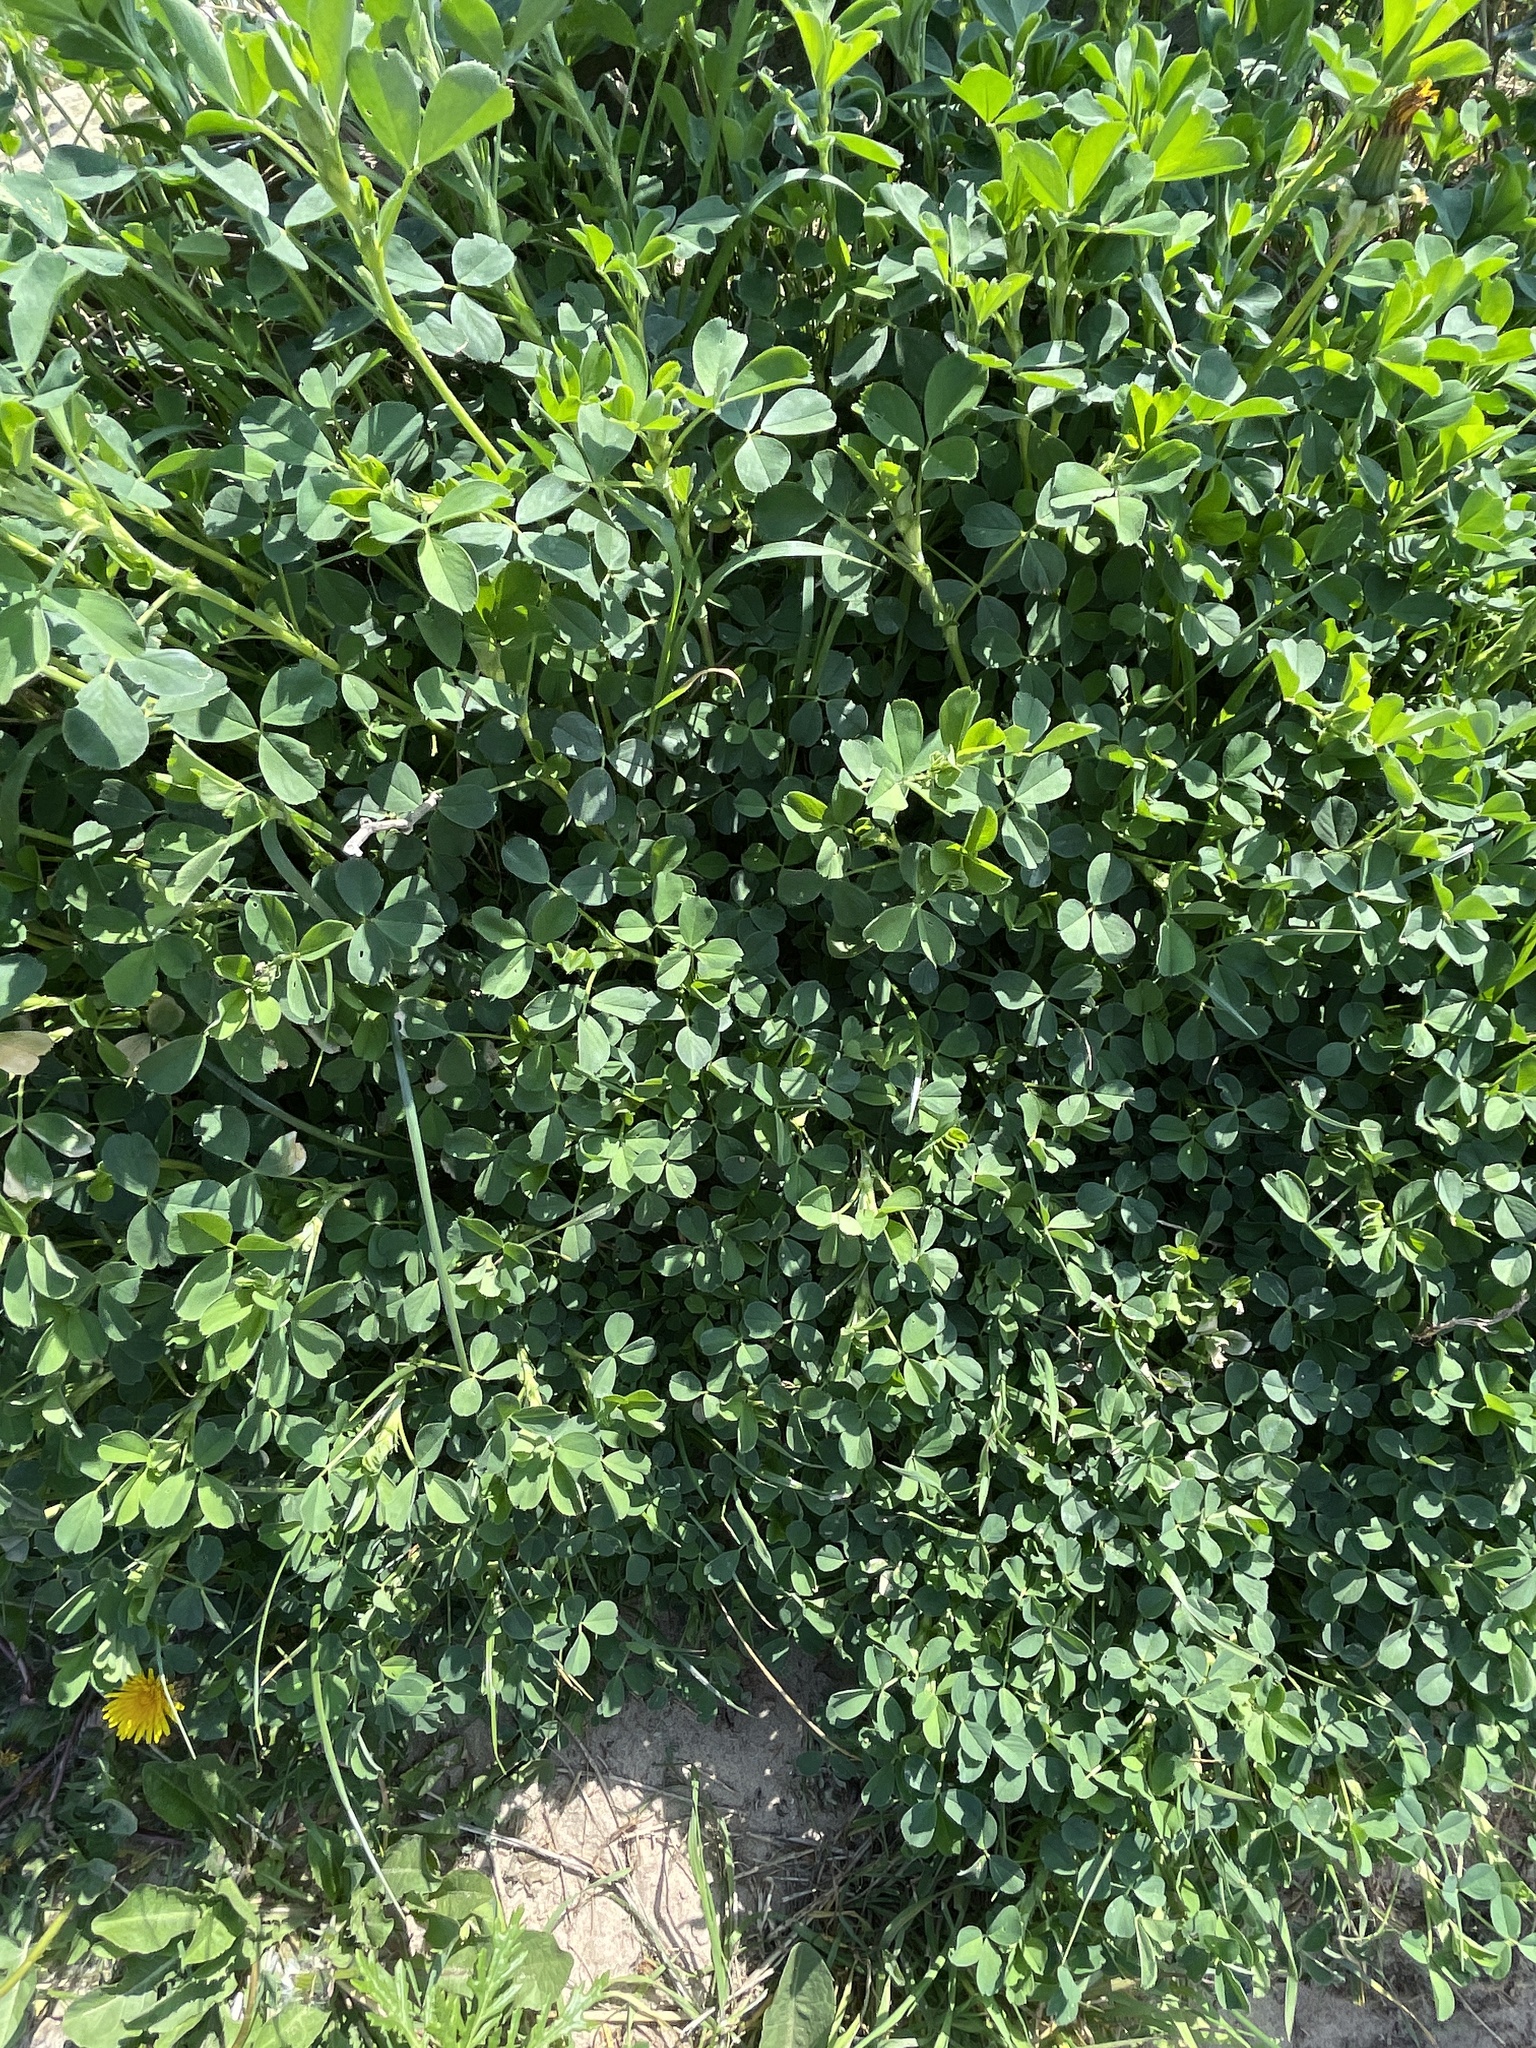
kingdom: Plantae
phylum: Tracheophyta
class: Magnoliopsida
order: Fabales
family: Fabaceae
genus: Medicago
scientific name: Medicago sativa
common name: Alfalfa
